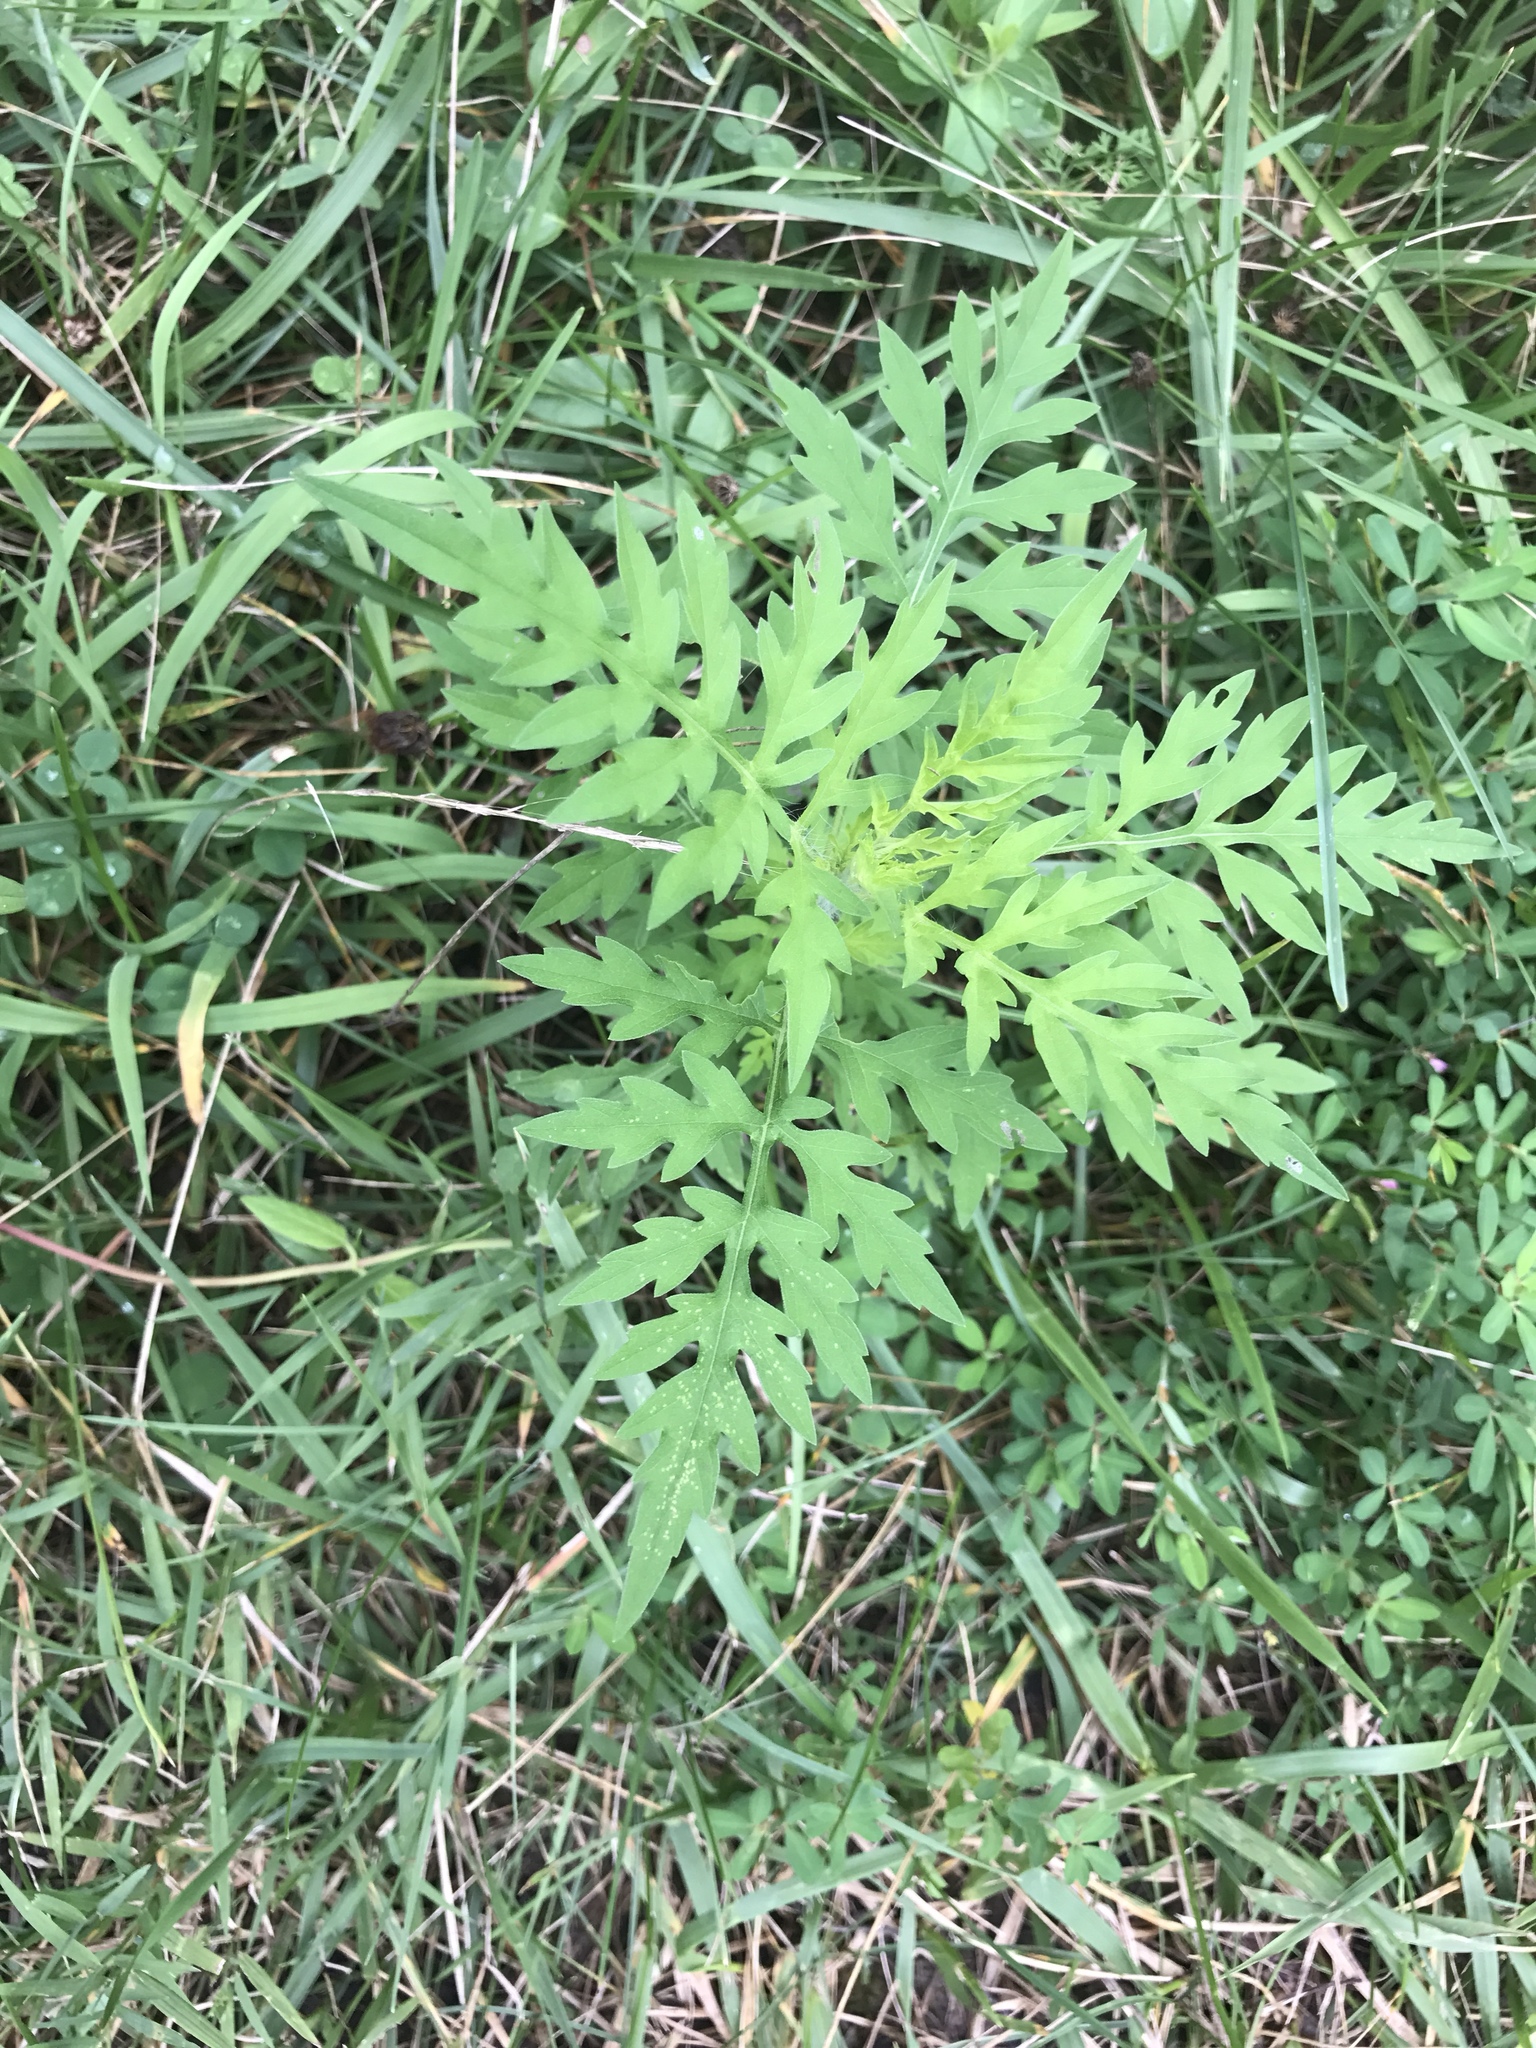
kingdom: Plantae
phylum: Tracheophyta
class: Magnoliopsida
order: Asterales
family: Asteraceae
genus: Ambrosia
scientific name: Ambrosia artemisiifolia
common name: Annual ragweed
